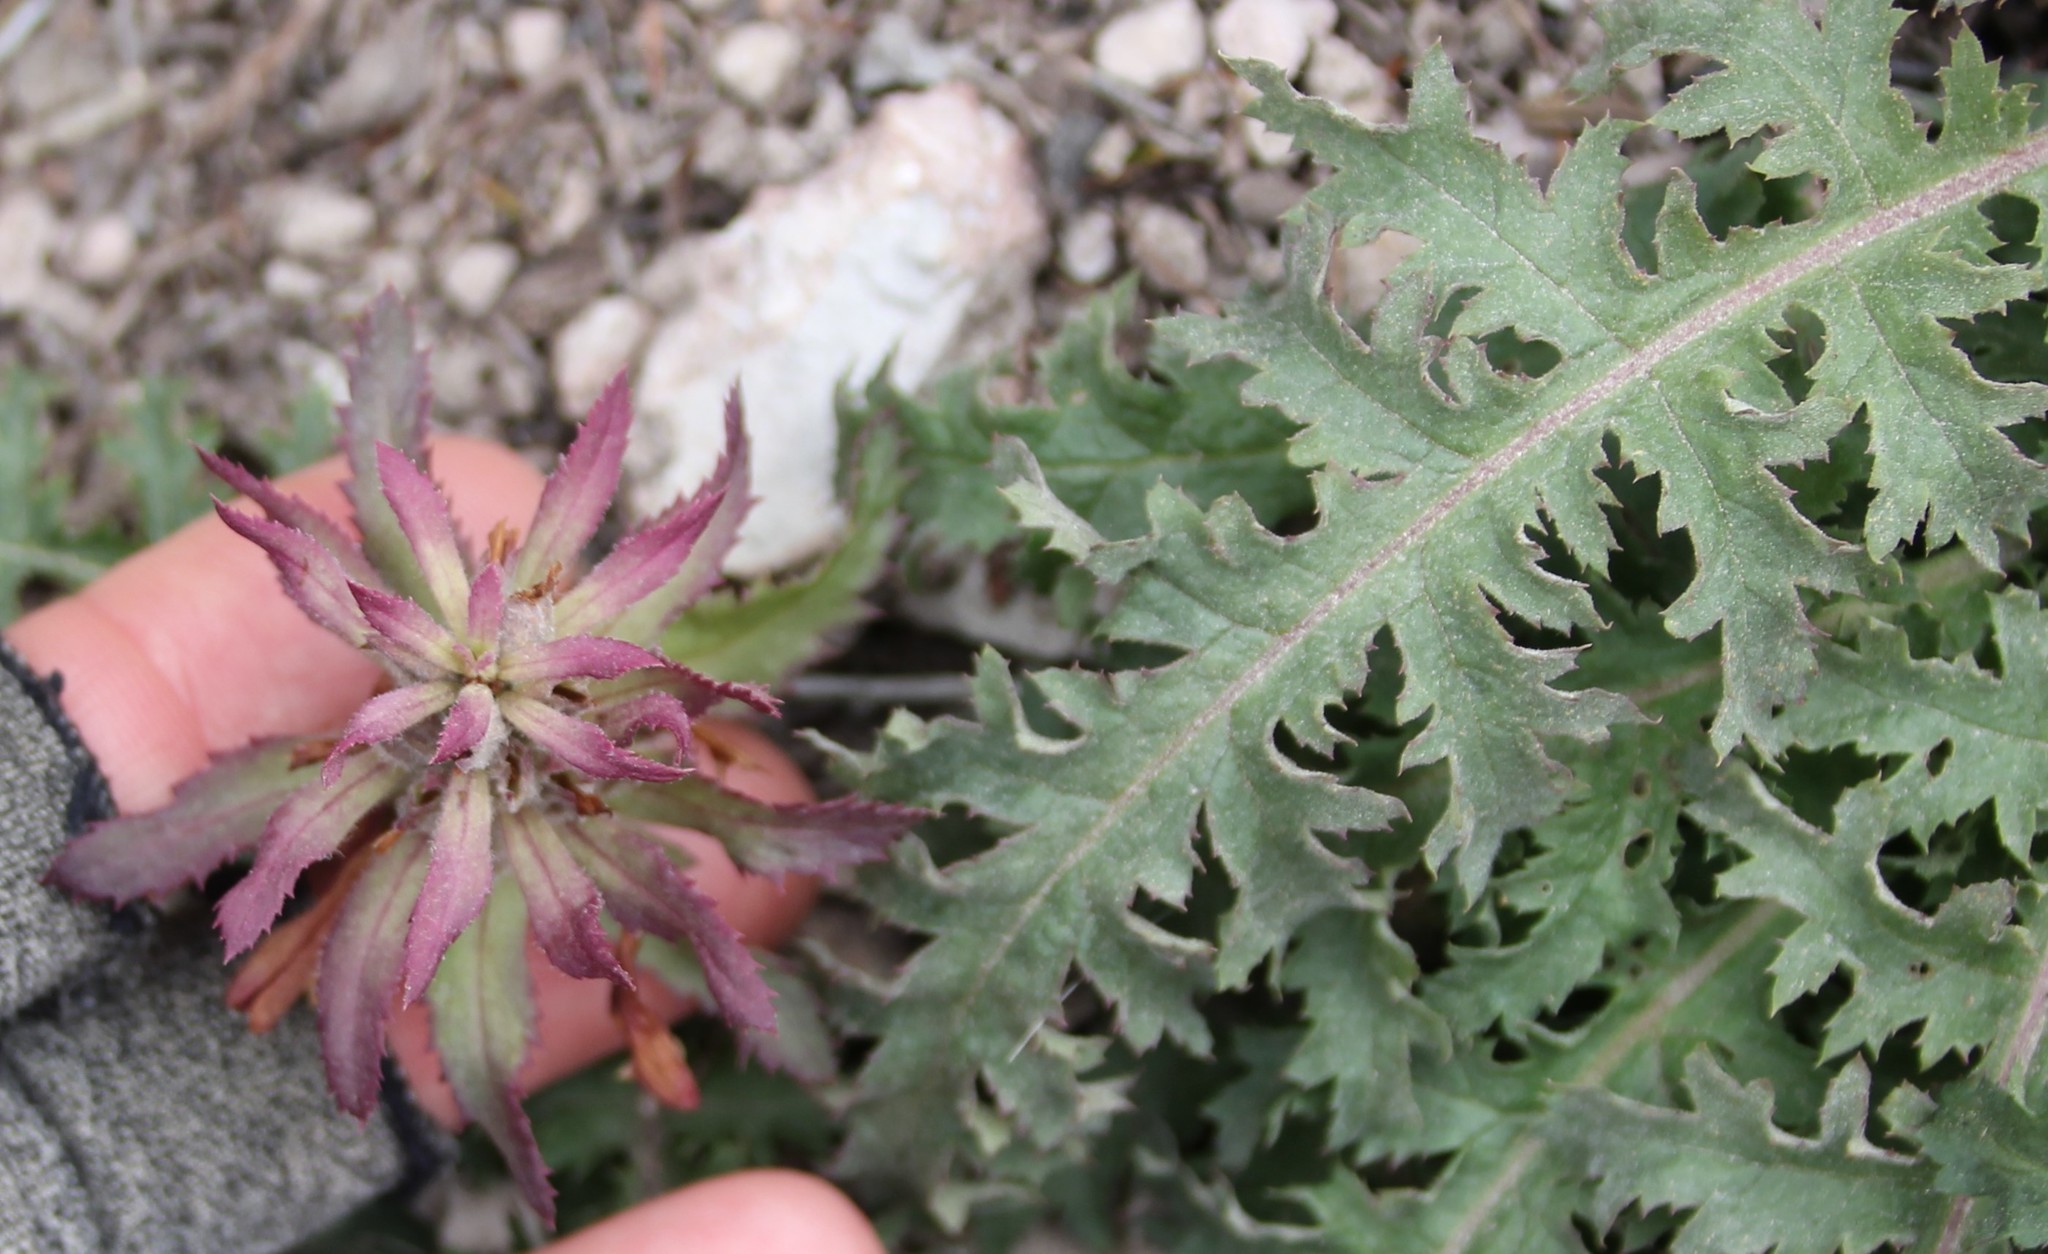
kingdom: Plantae
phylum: Tracheophyta
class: Magnoliopsida
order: Lamiales
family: Orobanchaceae
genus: Pedicularis
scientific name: Pedicularis densiflora
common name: Indian warrior
